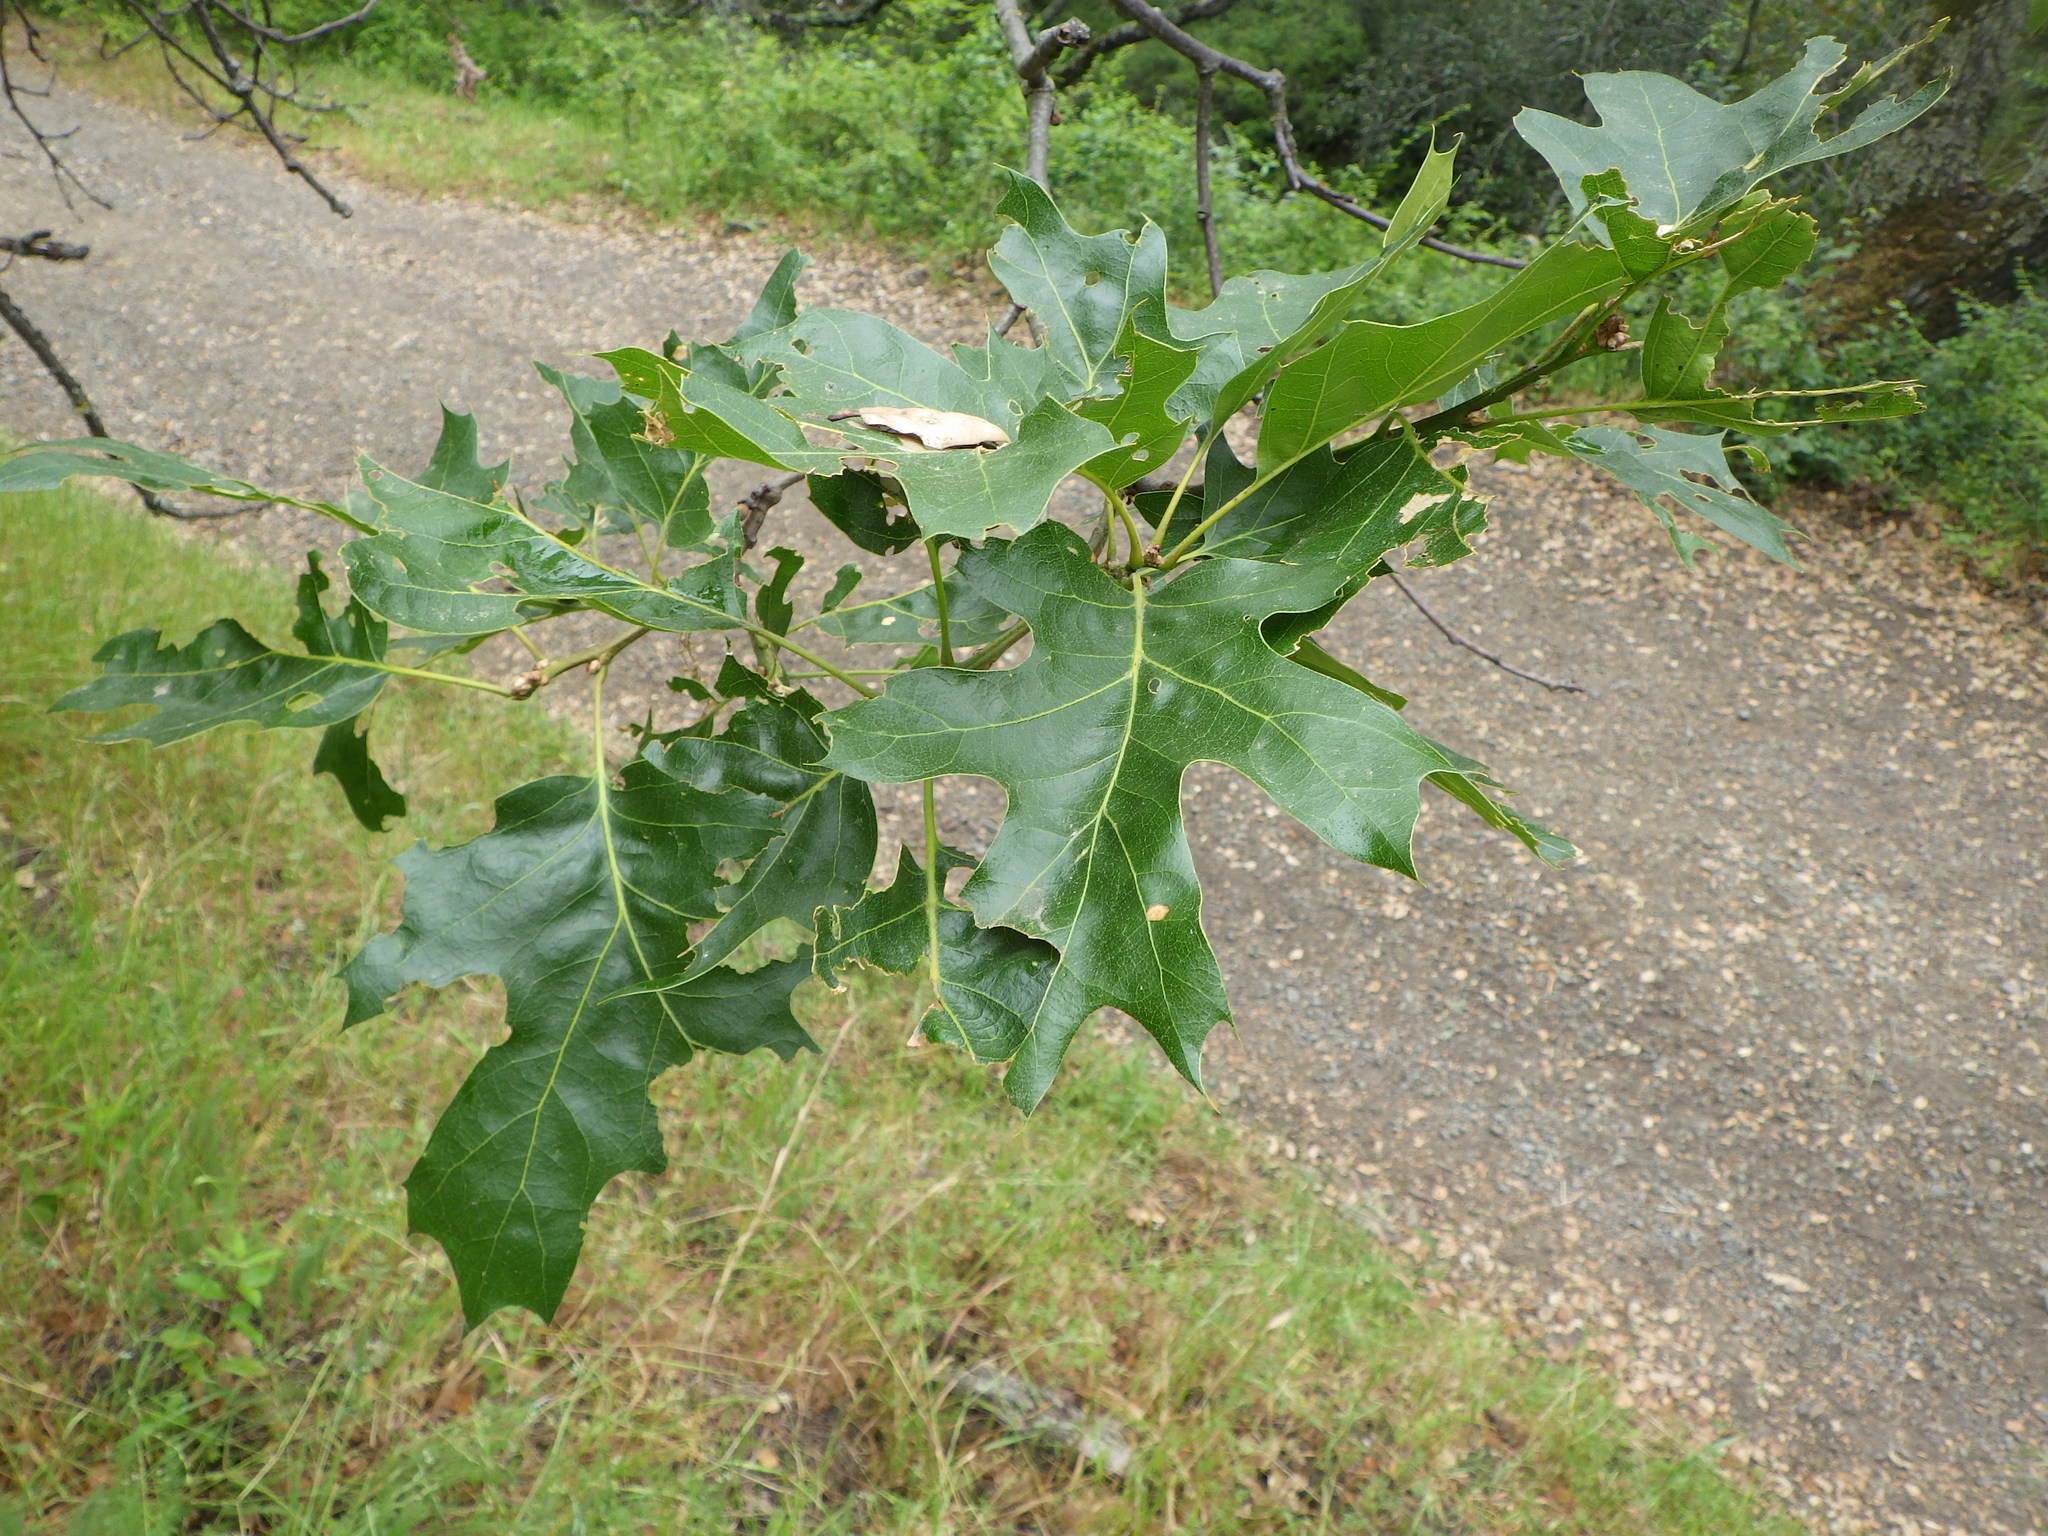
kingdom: Plantae
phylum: Tracheophyta
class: Magnoliopsida
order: Fagales
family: Fagaceae
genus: Quercus
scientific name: Quercus kelloggii
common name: California black oak
